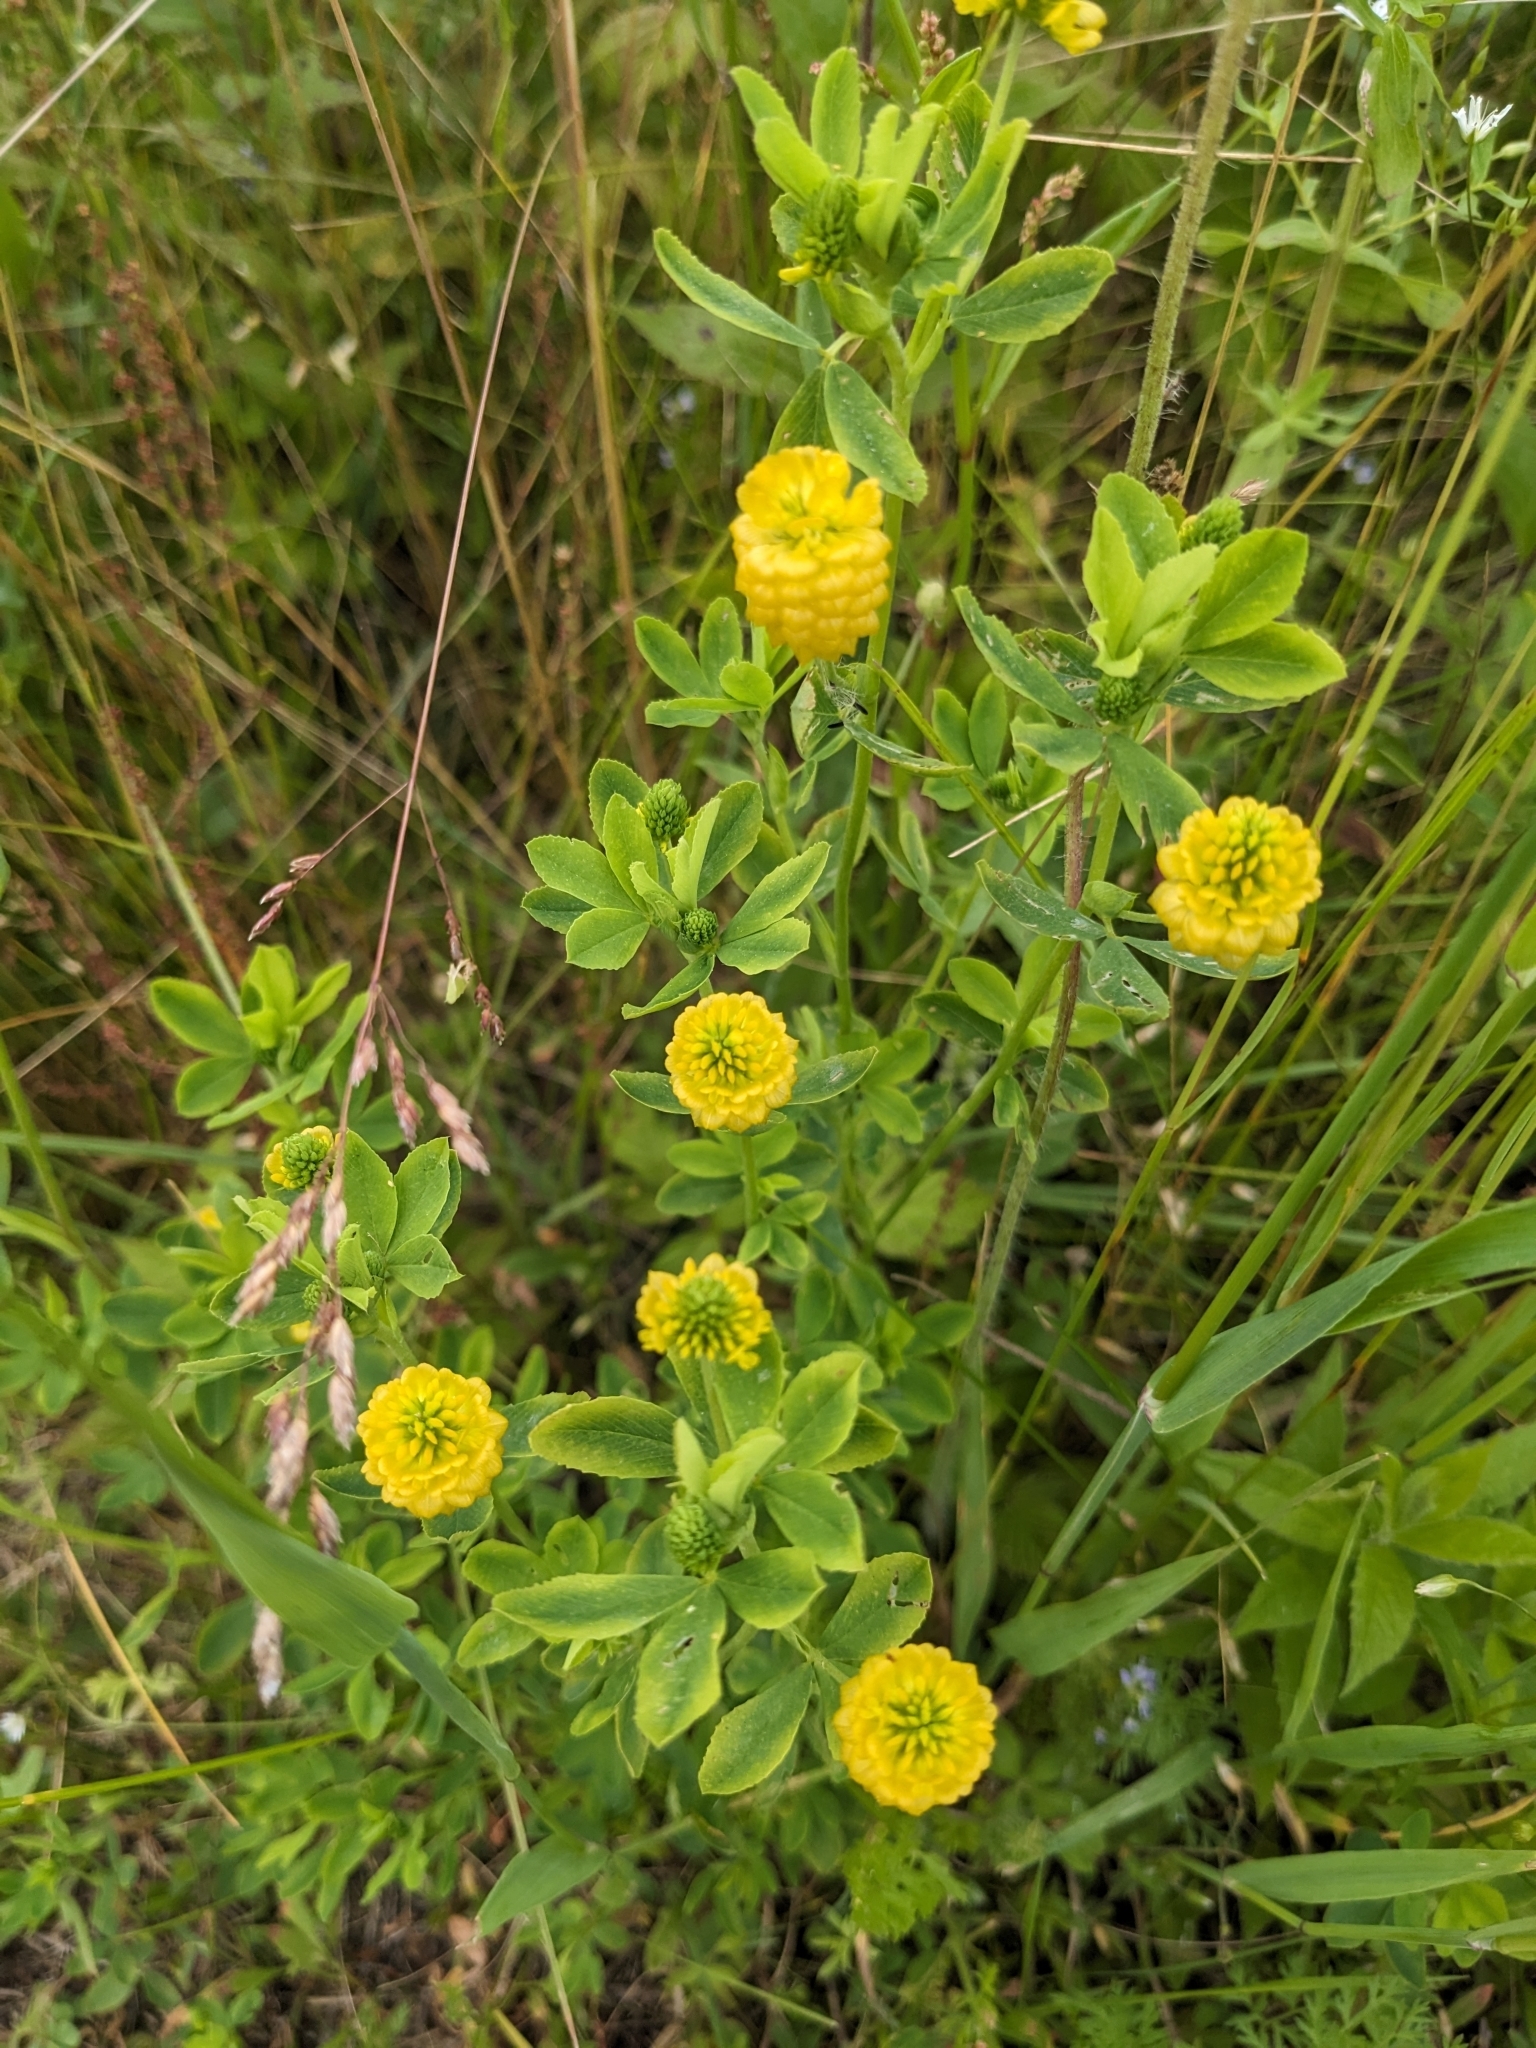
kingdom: Plantae
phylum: Tracheophyta
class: Magnoliopsida
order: Fabales
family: Fabaceae
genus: Trifolium
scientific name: Trifolium aureum
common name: Golden clover
